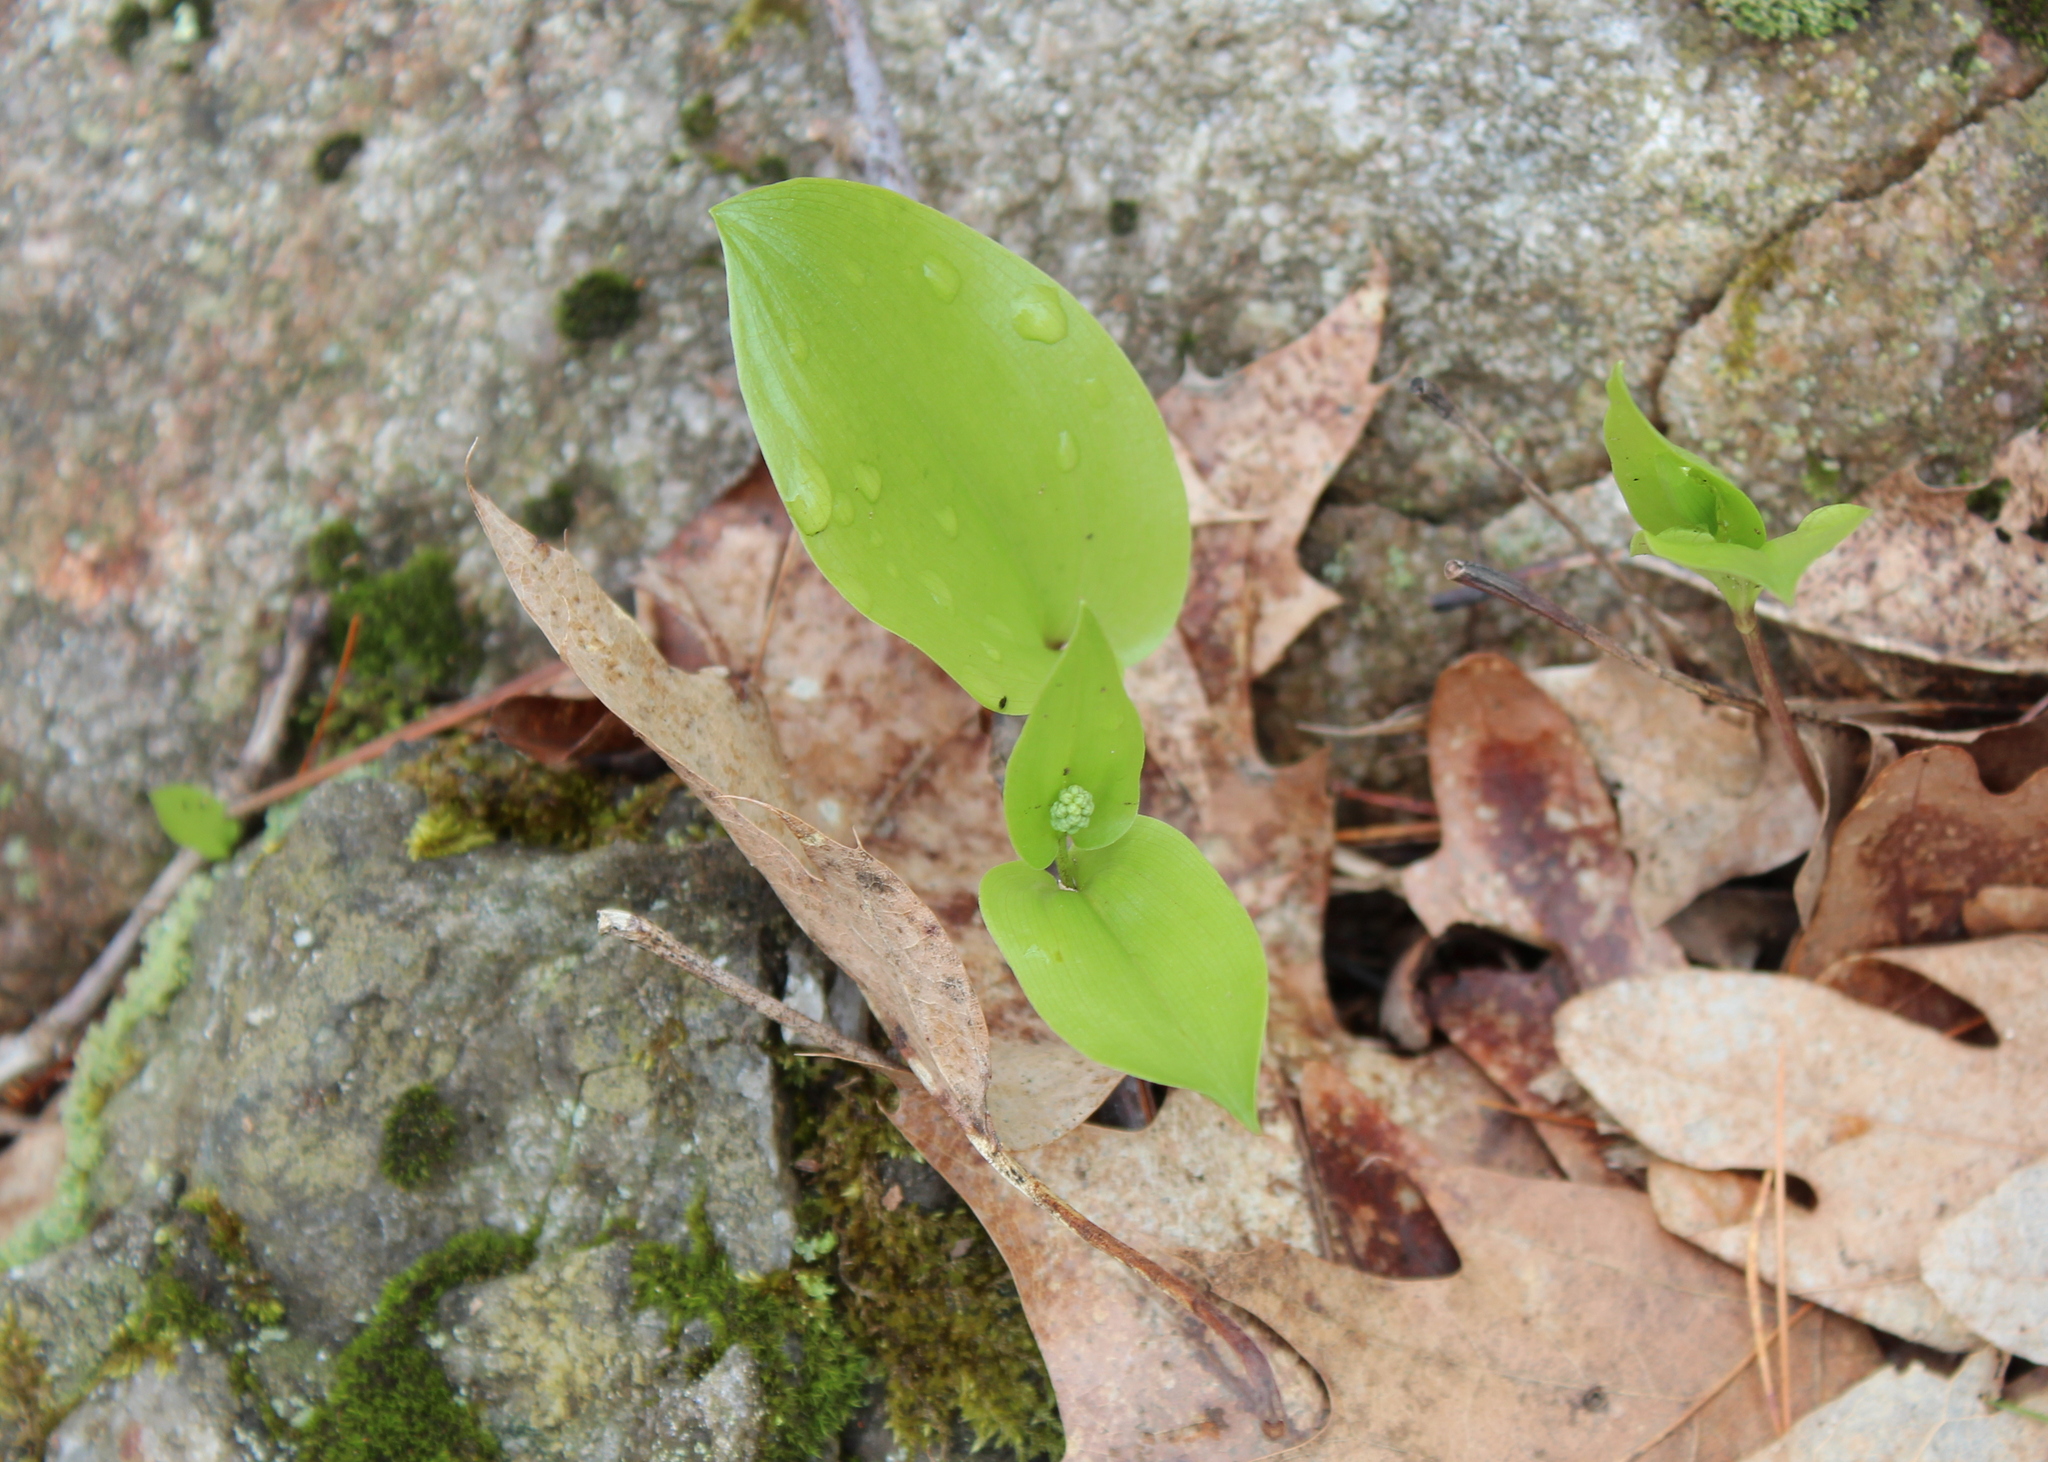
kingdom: Plantae
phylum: Tracheophyta
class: Liliopsida
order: Asparagales
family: Asparagaceae
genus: Maianthemum
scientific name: Maianthemum canadense
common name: False lily-of-the-valley
